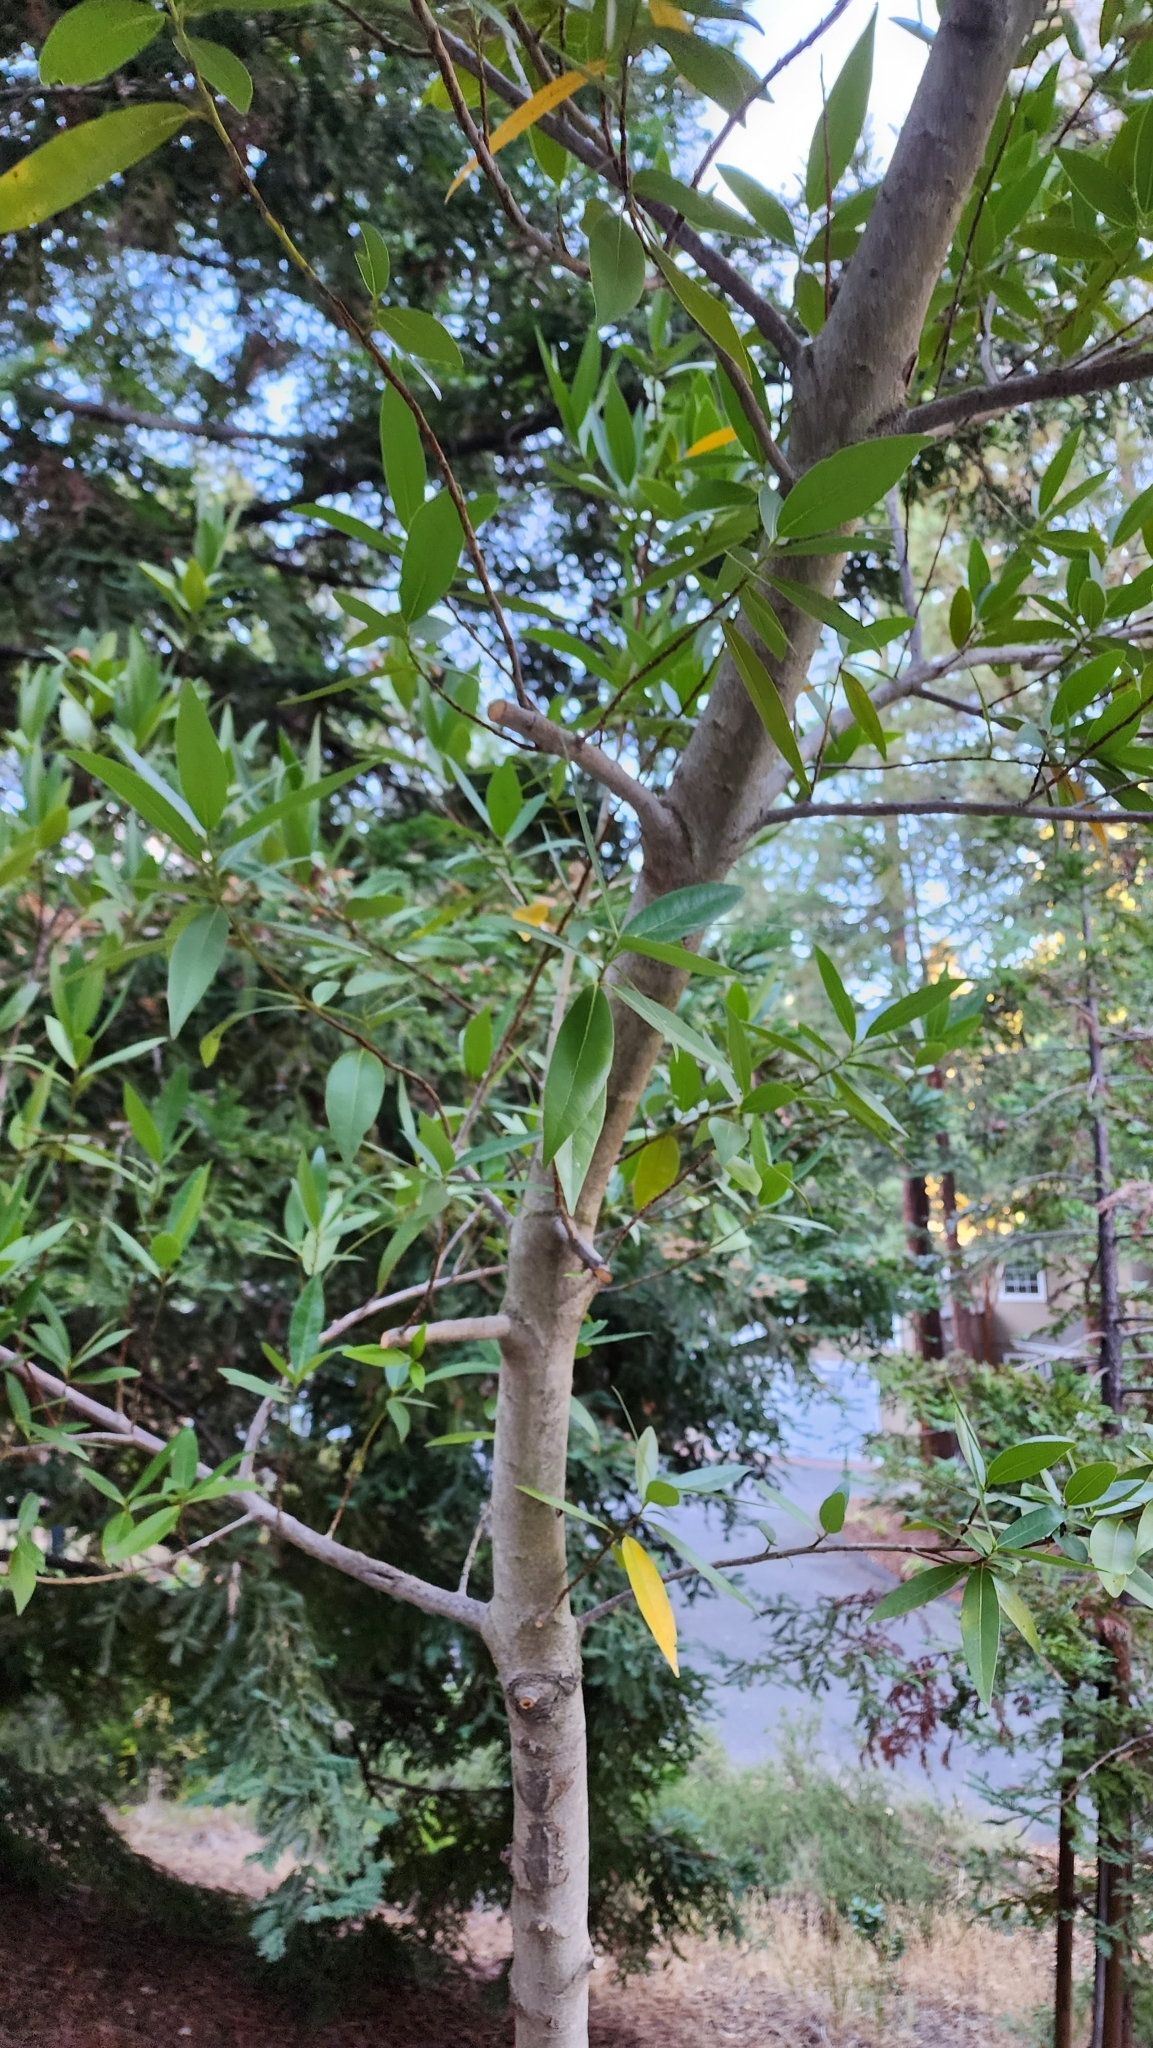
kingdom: Plantae
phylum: Tracheophyta
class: Magnoliopsida
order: Laurales
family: Lauraceae
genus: Umbellularia
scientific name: Umbellularia californica
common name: California bay
